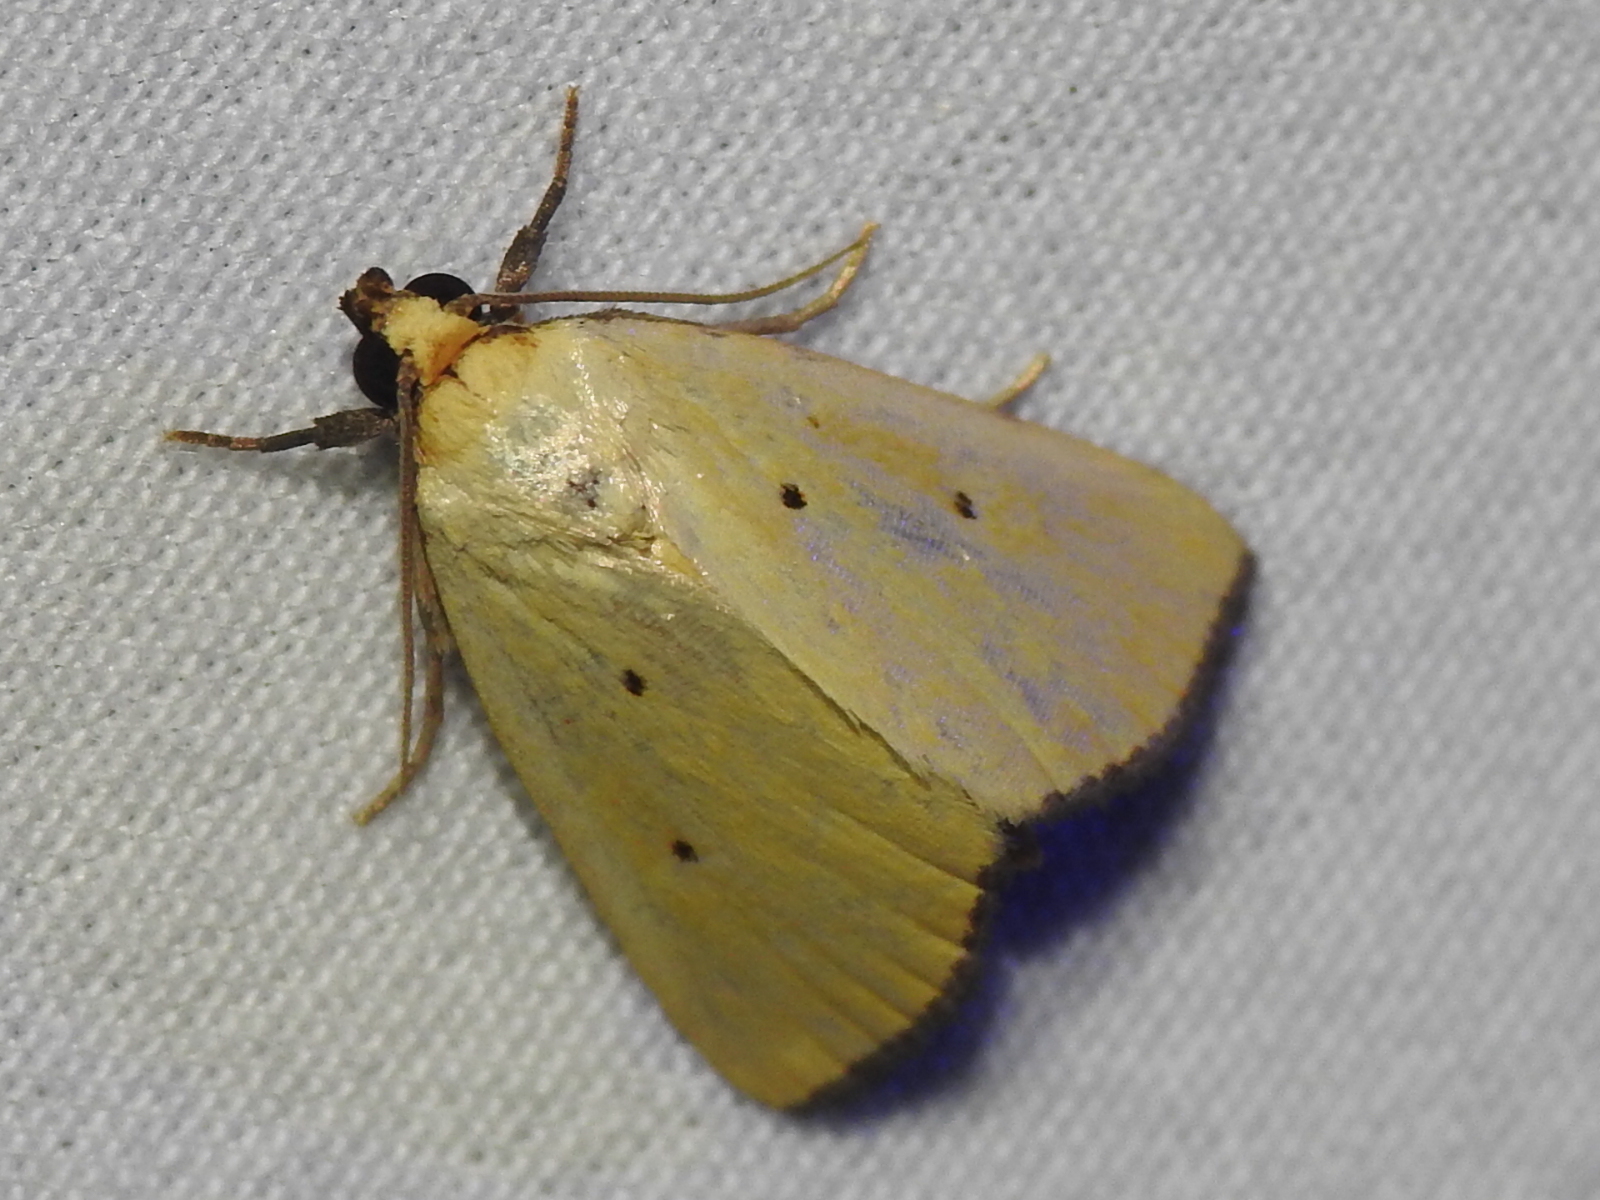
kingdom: Animalia
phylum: Arthropoda
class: Insecta
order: Lepidoptera
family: Noctuidae
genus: Marimatha
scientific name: Marimatha nigrofimbria
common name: Black-bordered lemon moth
